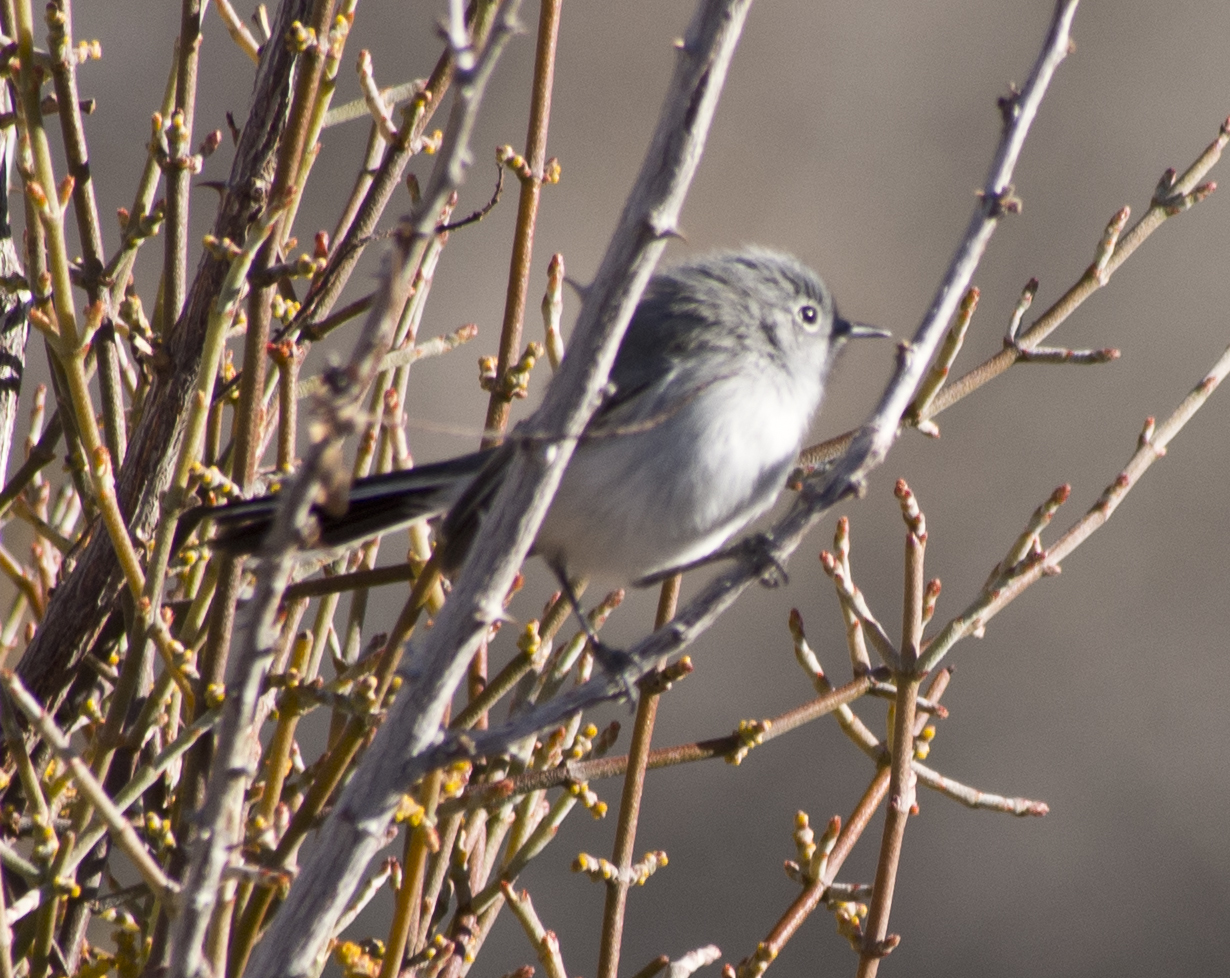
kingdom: Animalia
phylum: Chordata
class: Aves
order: Passeriformes
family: Polioptilidae
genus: Polioptila
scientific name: Polioptila caerulea
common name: Blue-gray gnatcatcher
